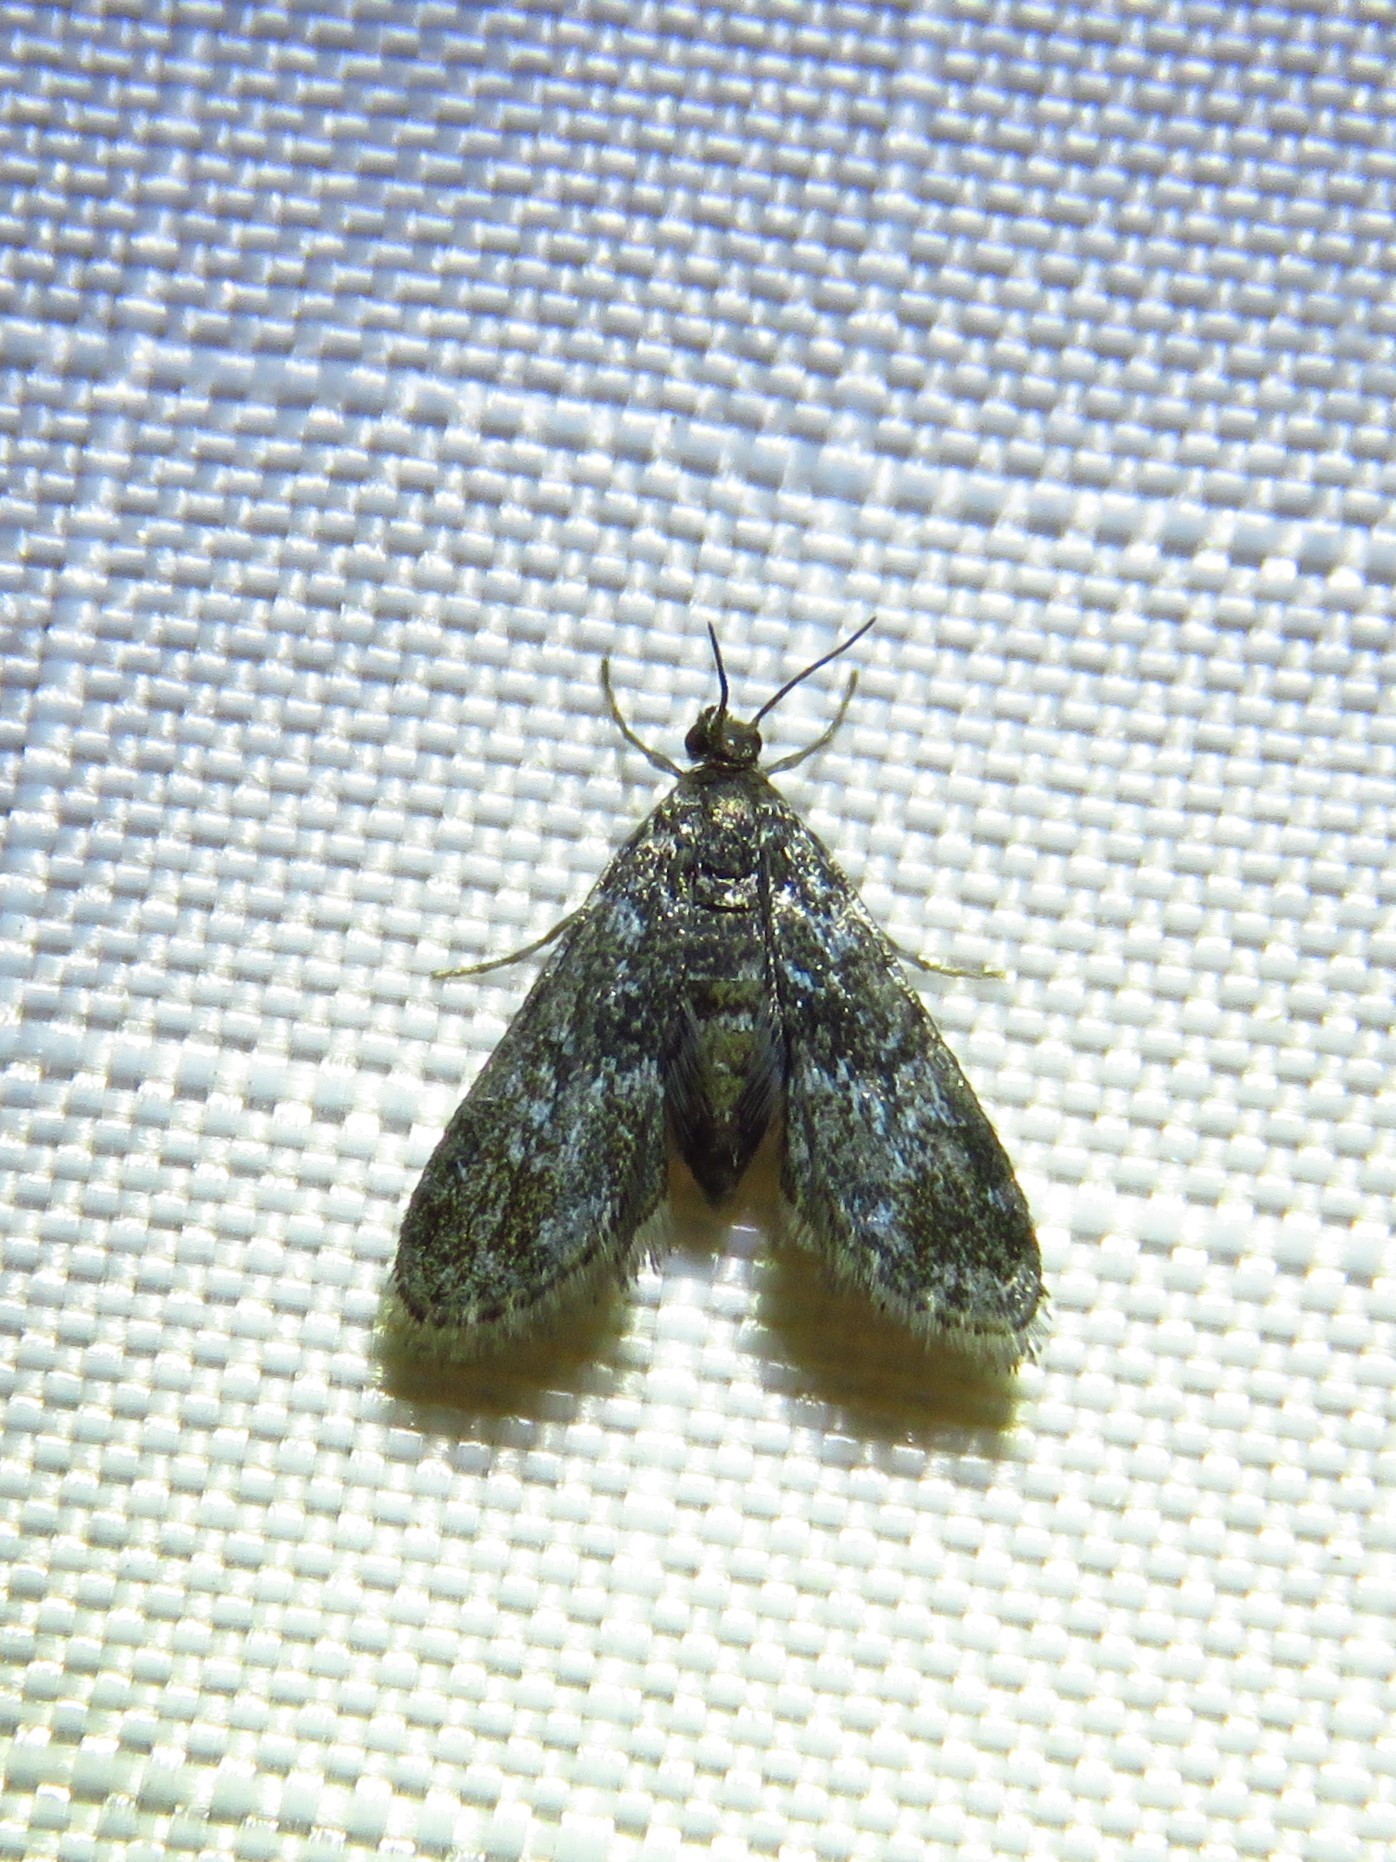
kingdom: Animalia
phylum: Arthropoda
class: Insecta
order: Lepidoptera
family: Crambidae
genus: Elophila
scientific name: Elophila tinealis
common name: Black duckweed moth
